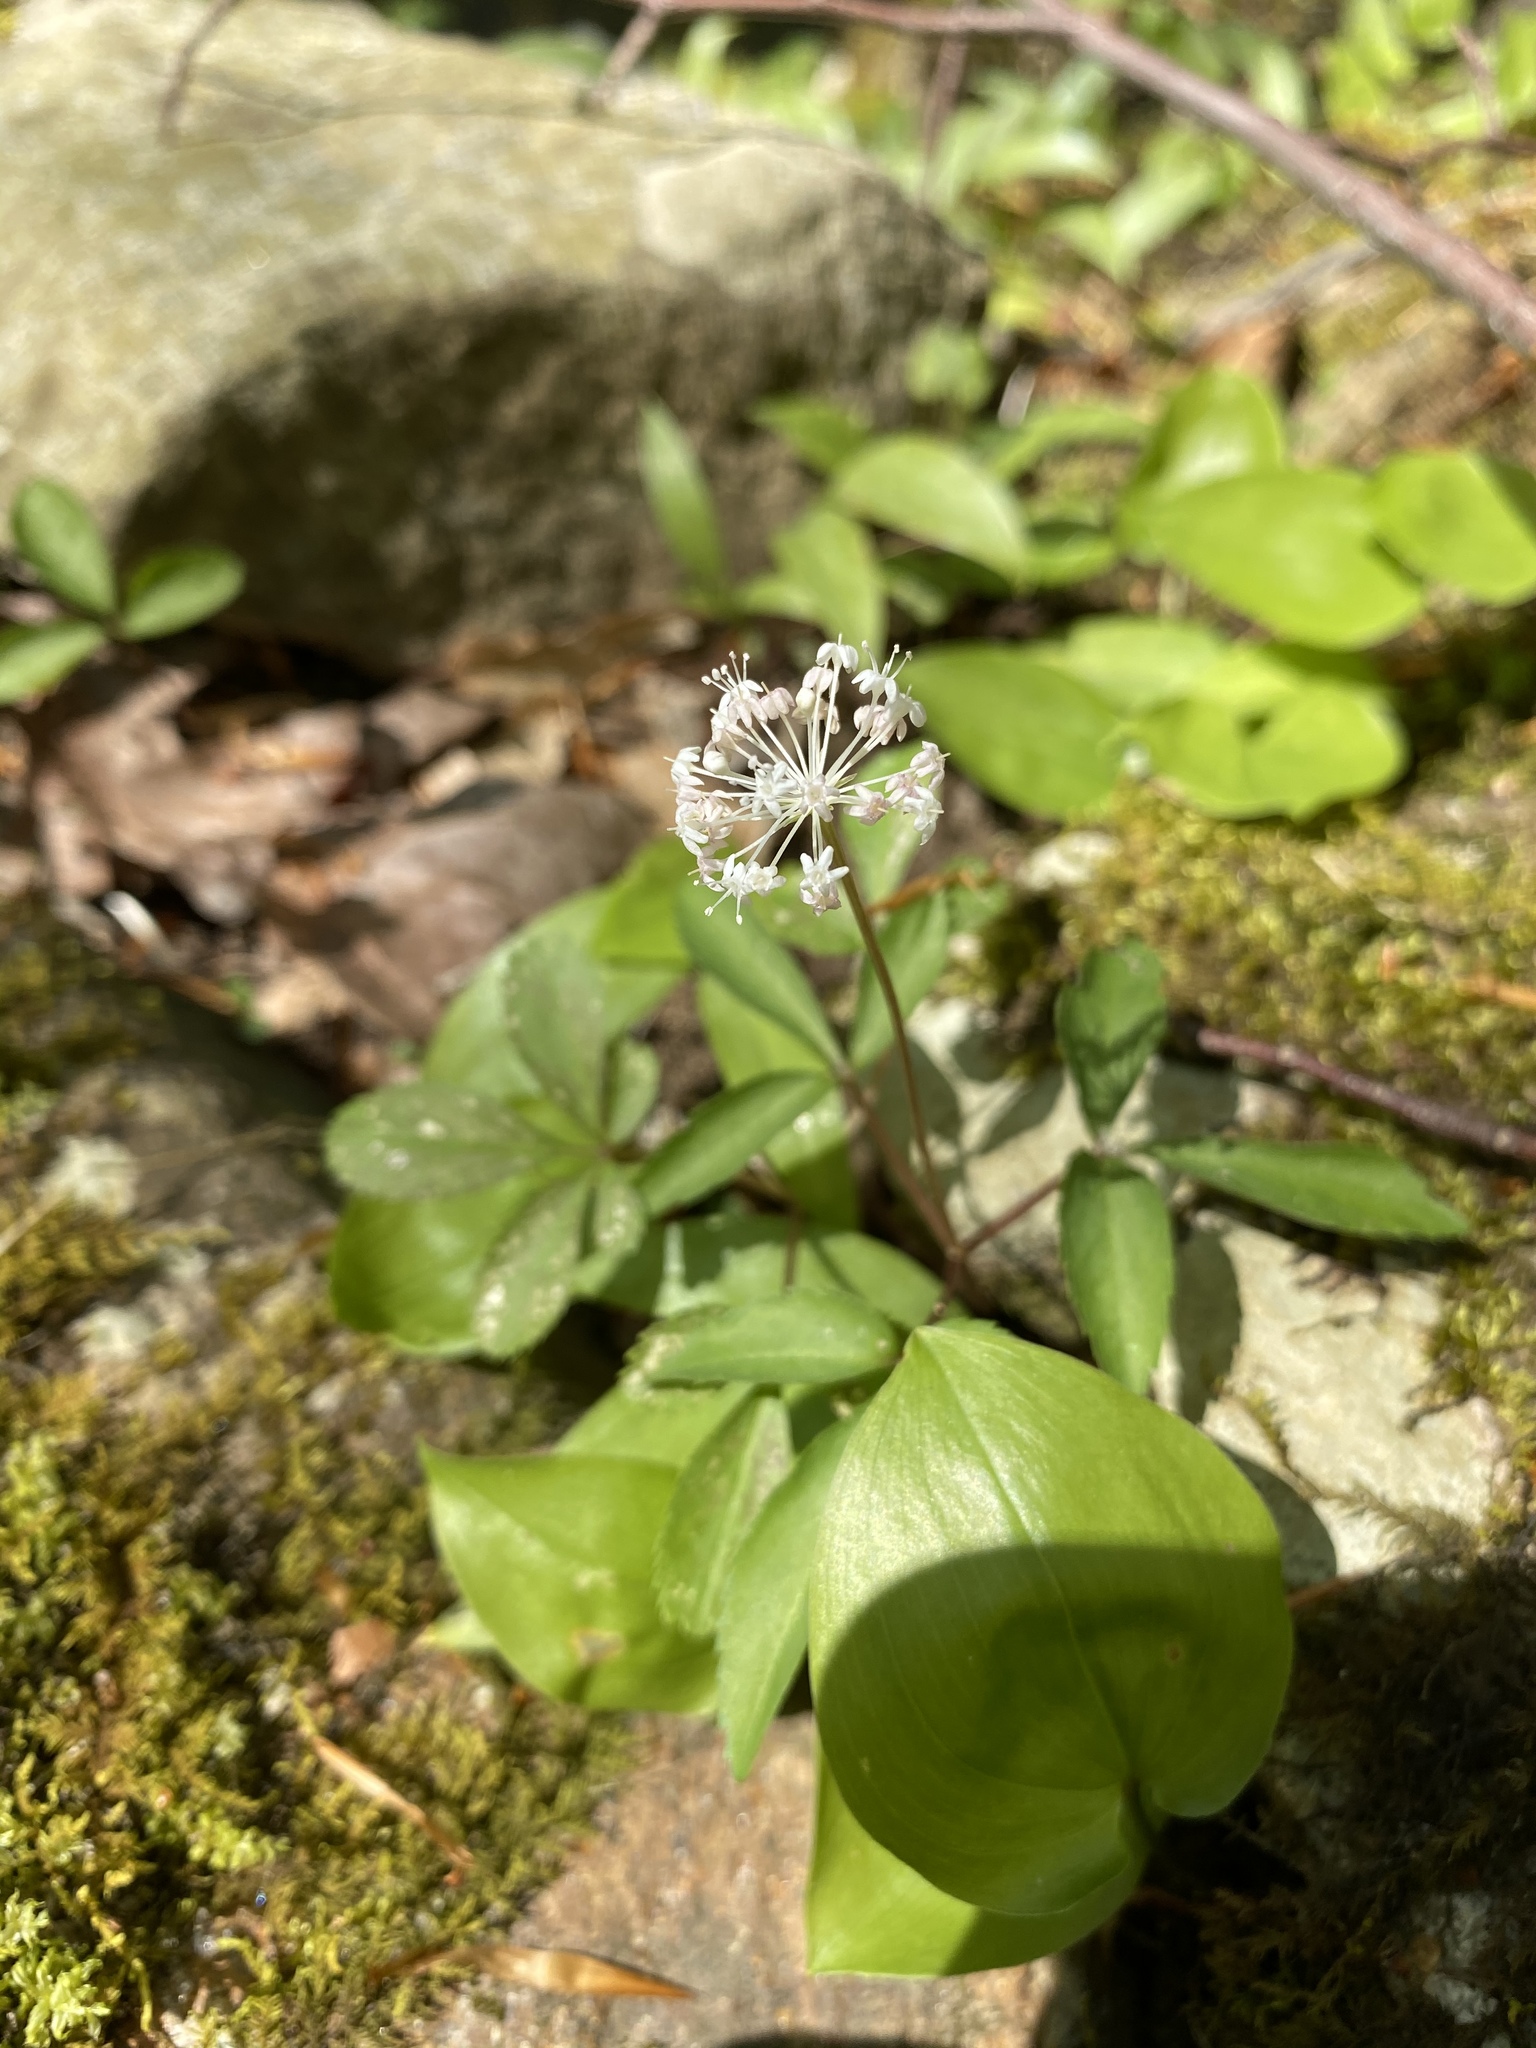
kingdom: Plantae
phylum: Tracheophyta
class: Magnoliopsida
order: Apiales
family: Araliaceae
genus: Panax
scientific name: Panax trifolius
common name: Dwarf ginseng
